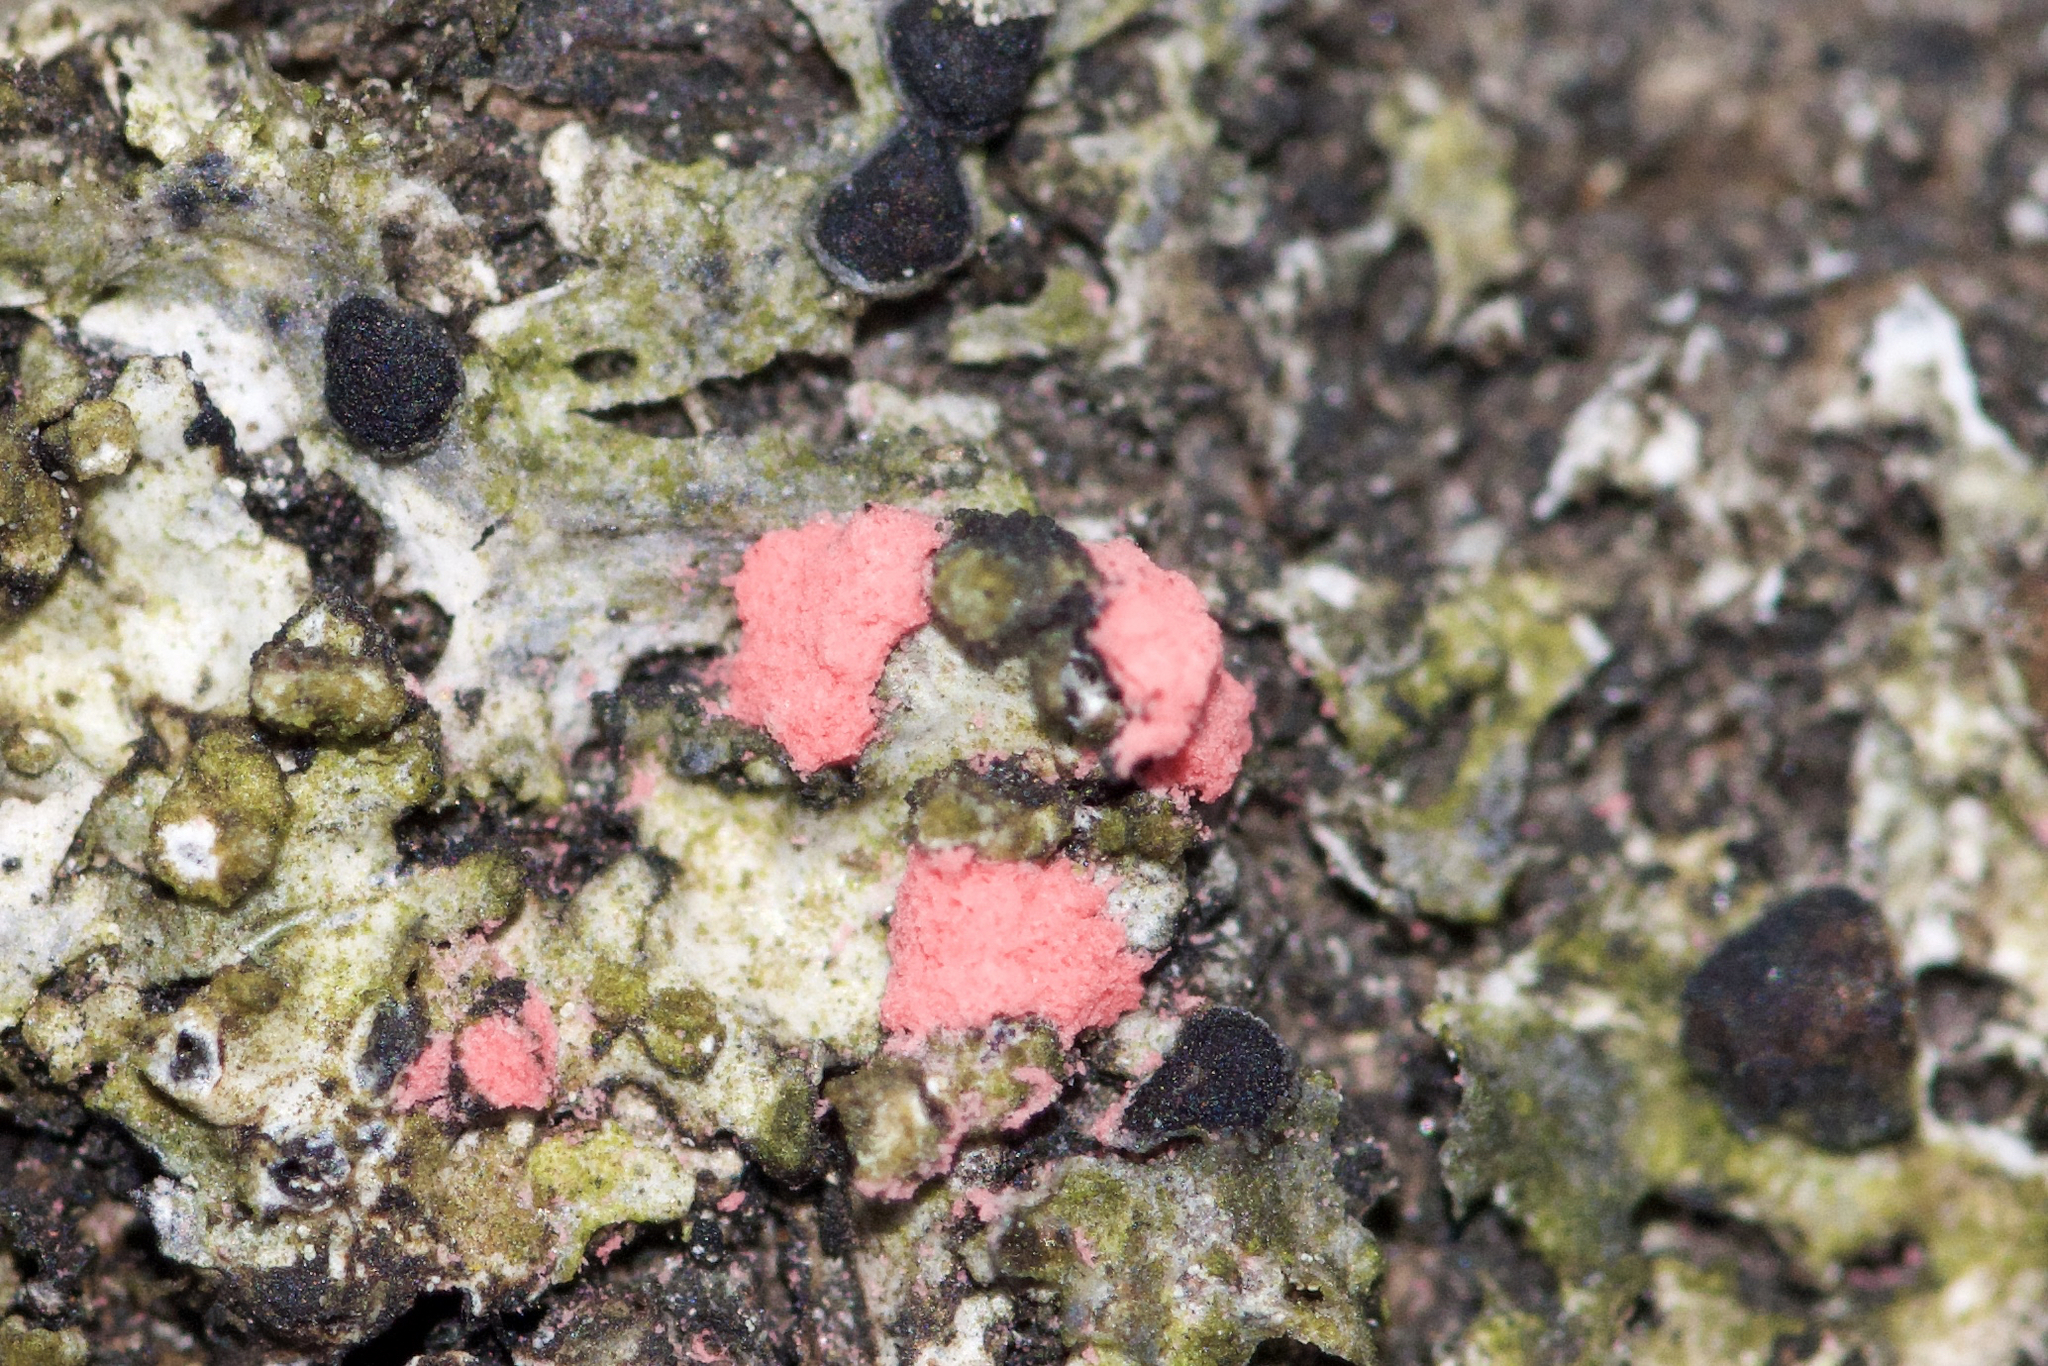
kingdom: Fungi
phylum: Ascomycota
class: Sordariomycetes
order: Hypocreales
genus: Illosporiopsis
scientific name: Illosporiopsis christiansenii
